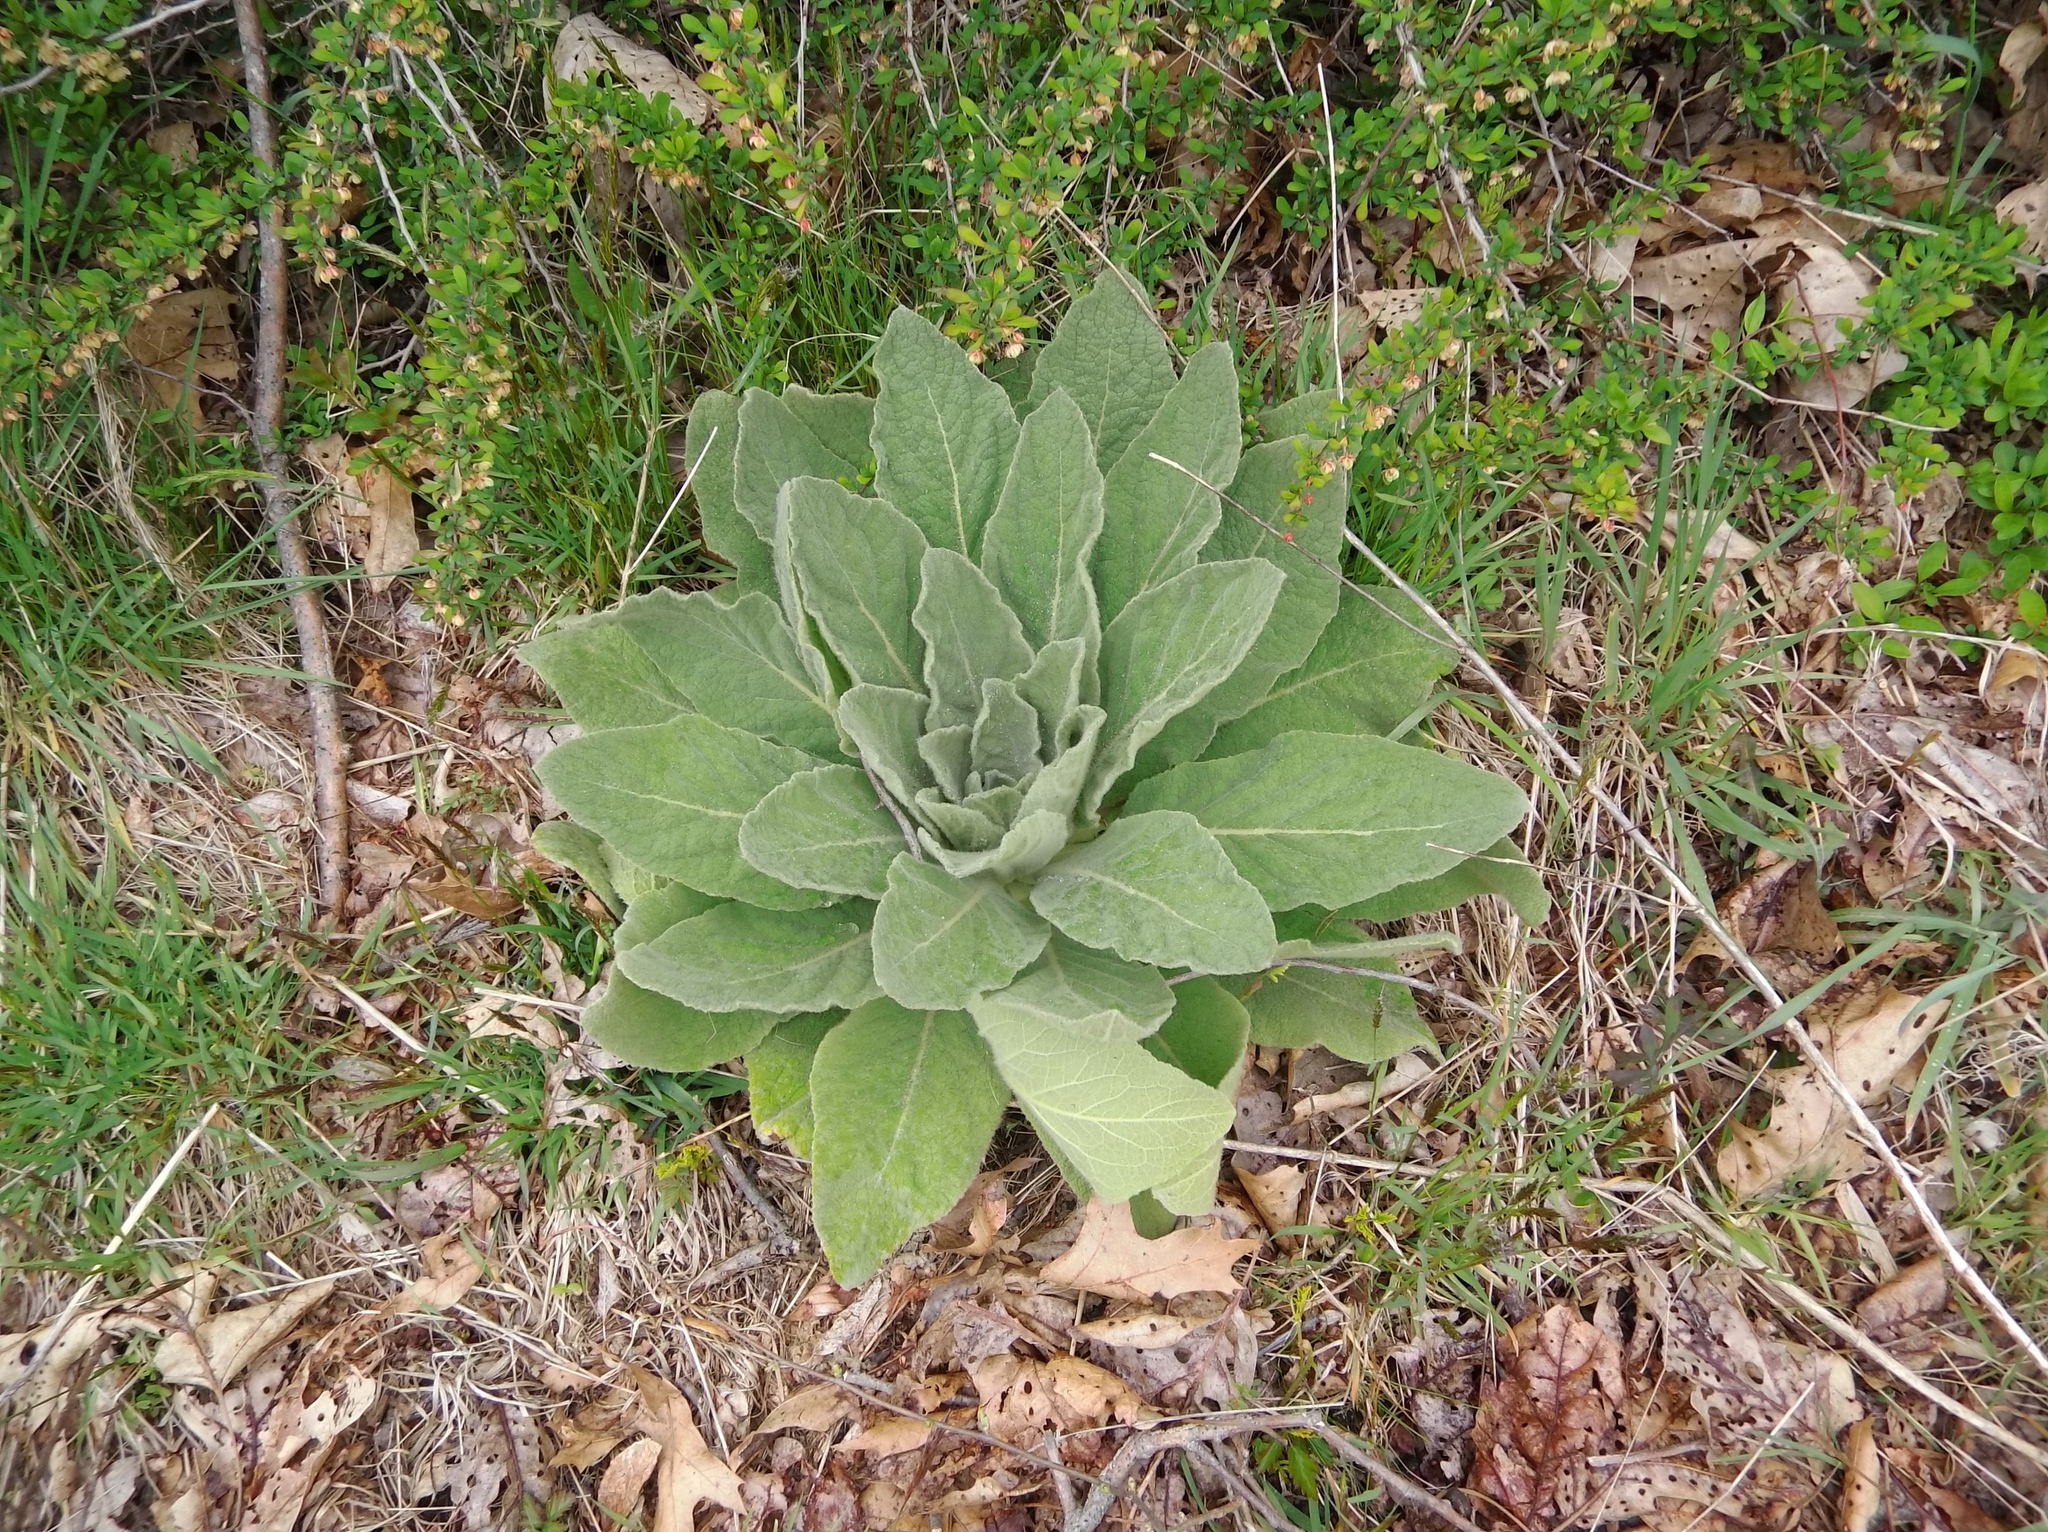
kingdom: Plantae
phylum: Tracheophyta
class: Magnoliopsida
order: Lamiales
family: Scrophulariaceae
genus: Verbascum
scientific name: Verbascum thapsus
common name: Common mullein
